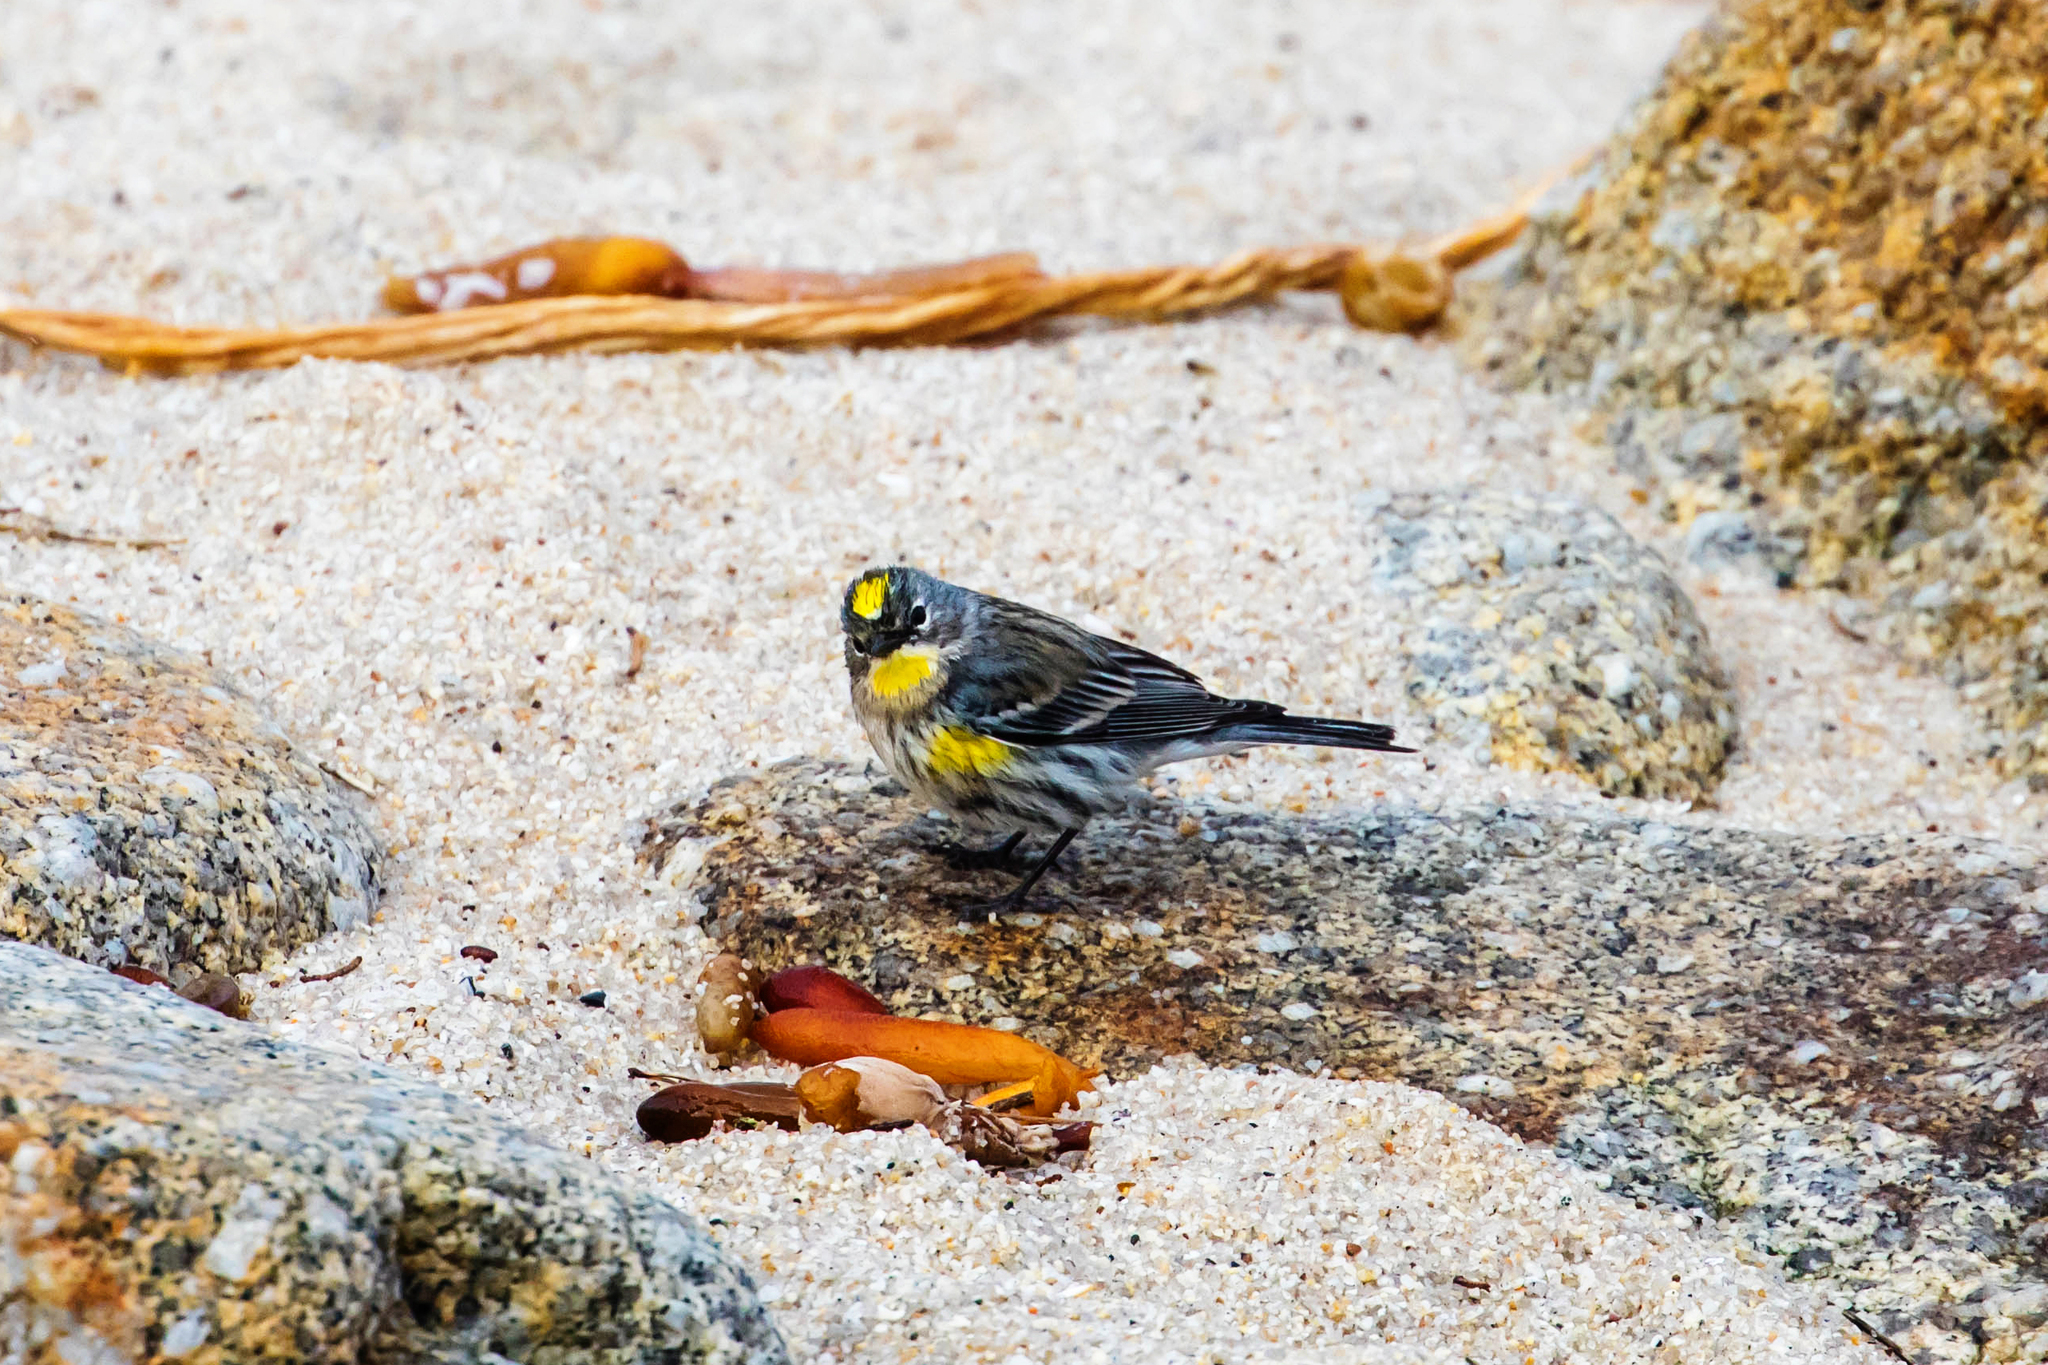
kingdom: Animalia
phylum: Chordata
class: Aves
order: Passeriformes
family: Parulidae
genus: Setophaga
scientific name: Setophaga auduboni
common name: Audubon's warbler
